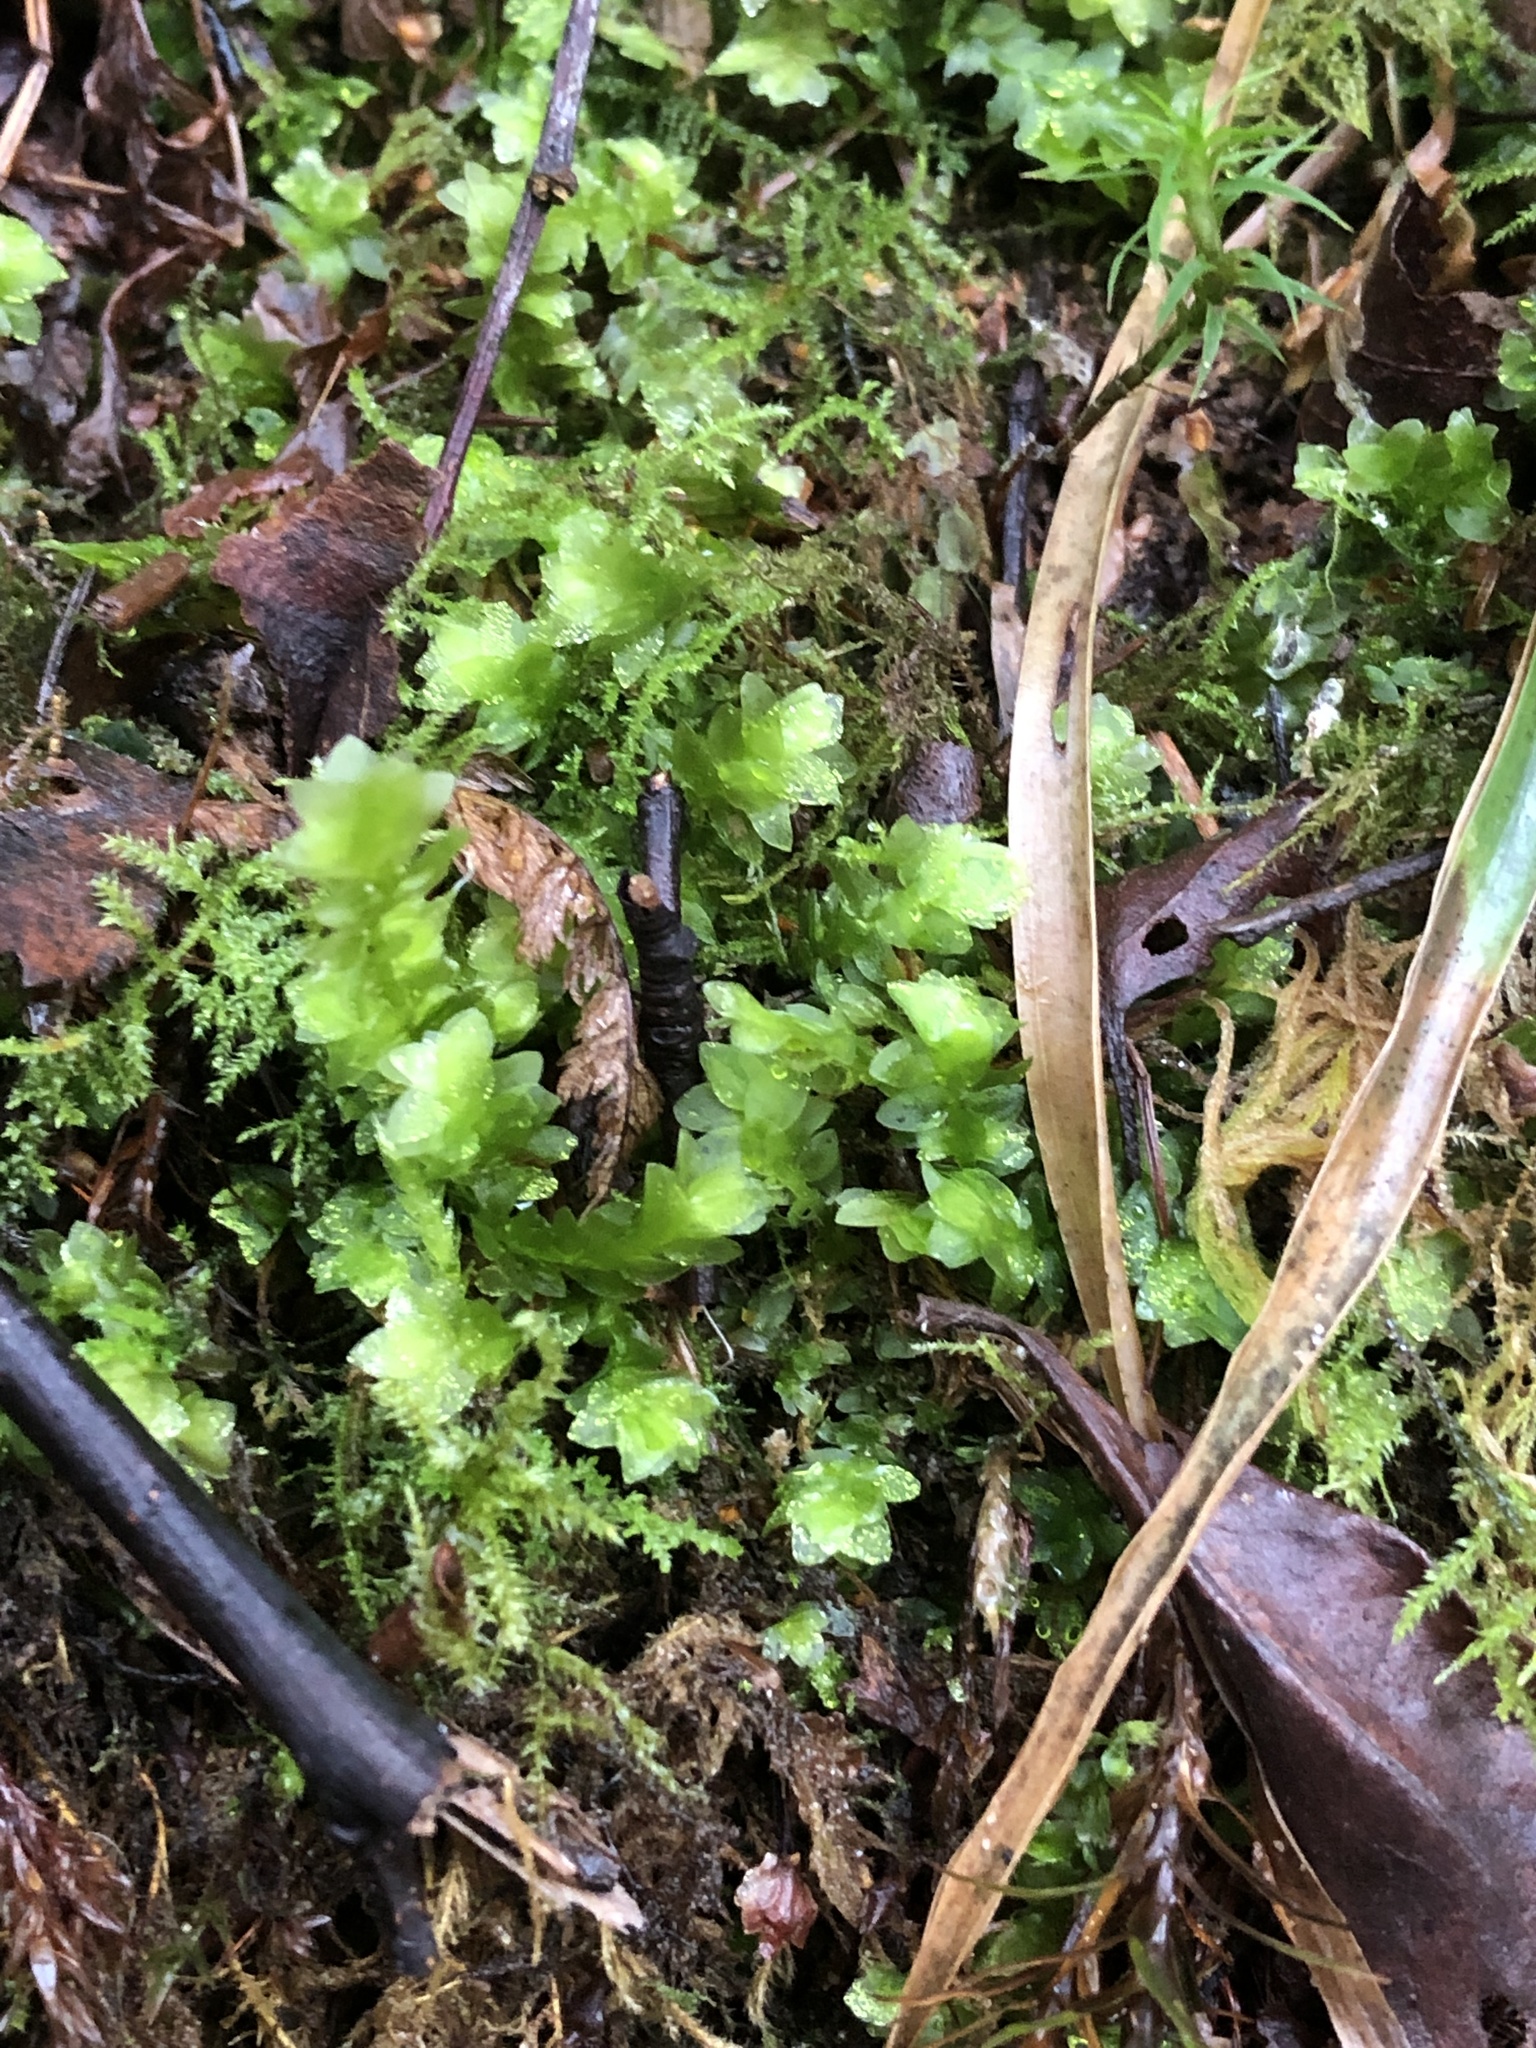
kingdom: Plantae
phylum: Bryophyta
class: Bryopsida
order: Hookeriales
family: Hookeriaceae
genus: Hookeria
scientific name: Hookeria lucens
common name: Shining hookeria
